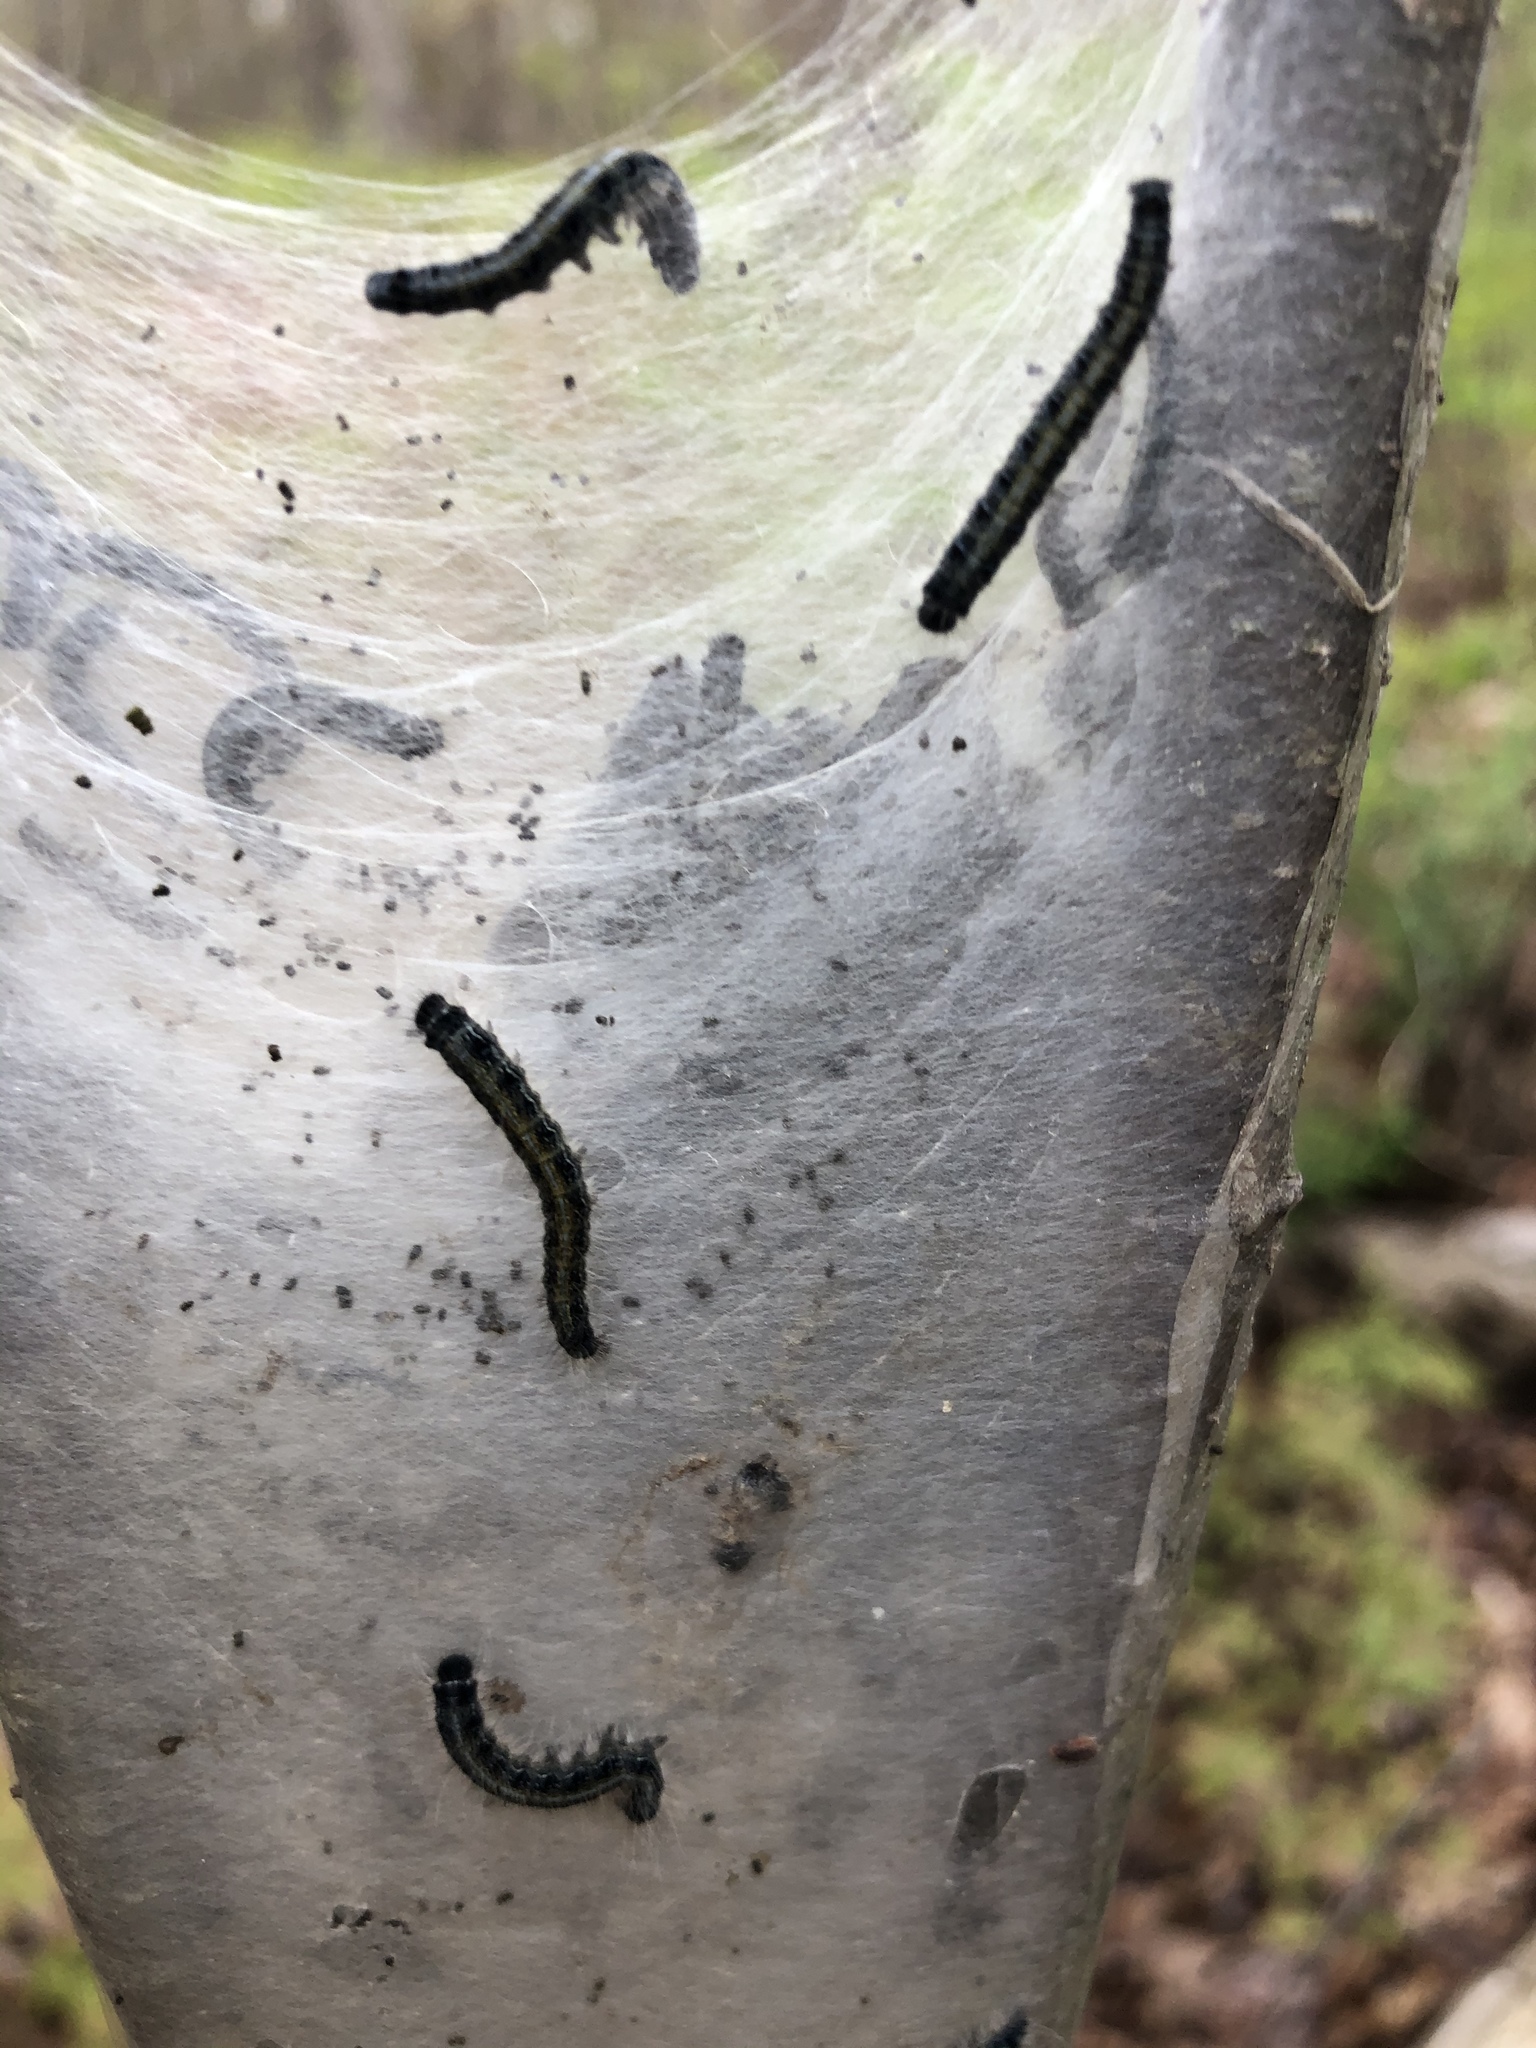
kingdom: Animalia
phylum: Arthropoda
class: Insecta
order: Lepidoptera
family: Lasiocampidae
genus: Malacosoma
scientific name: Malacosoma americana
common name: Eastern tent caterpillar moth
